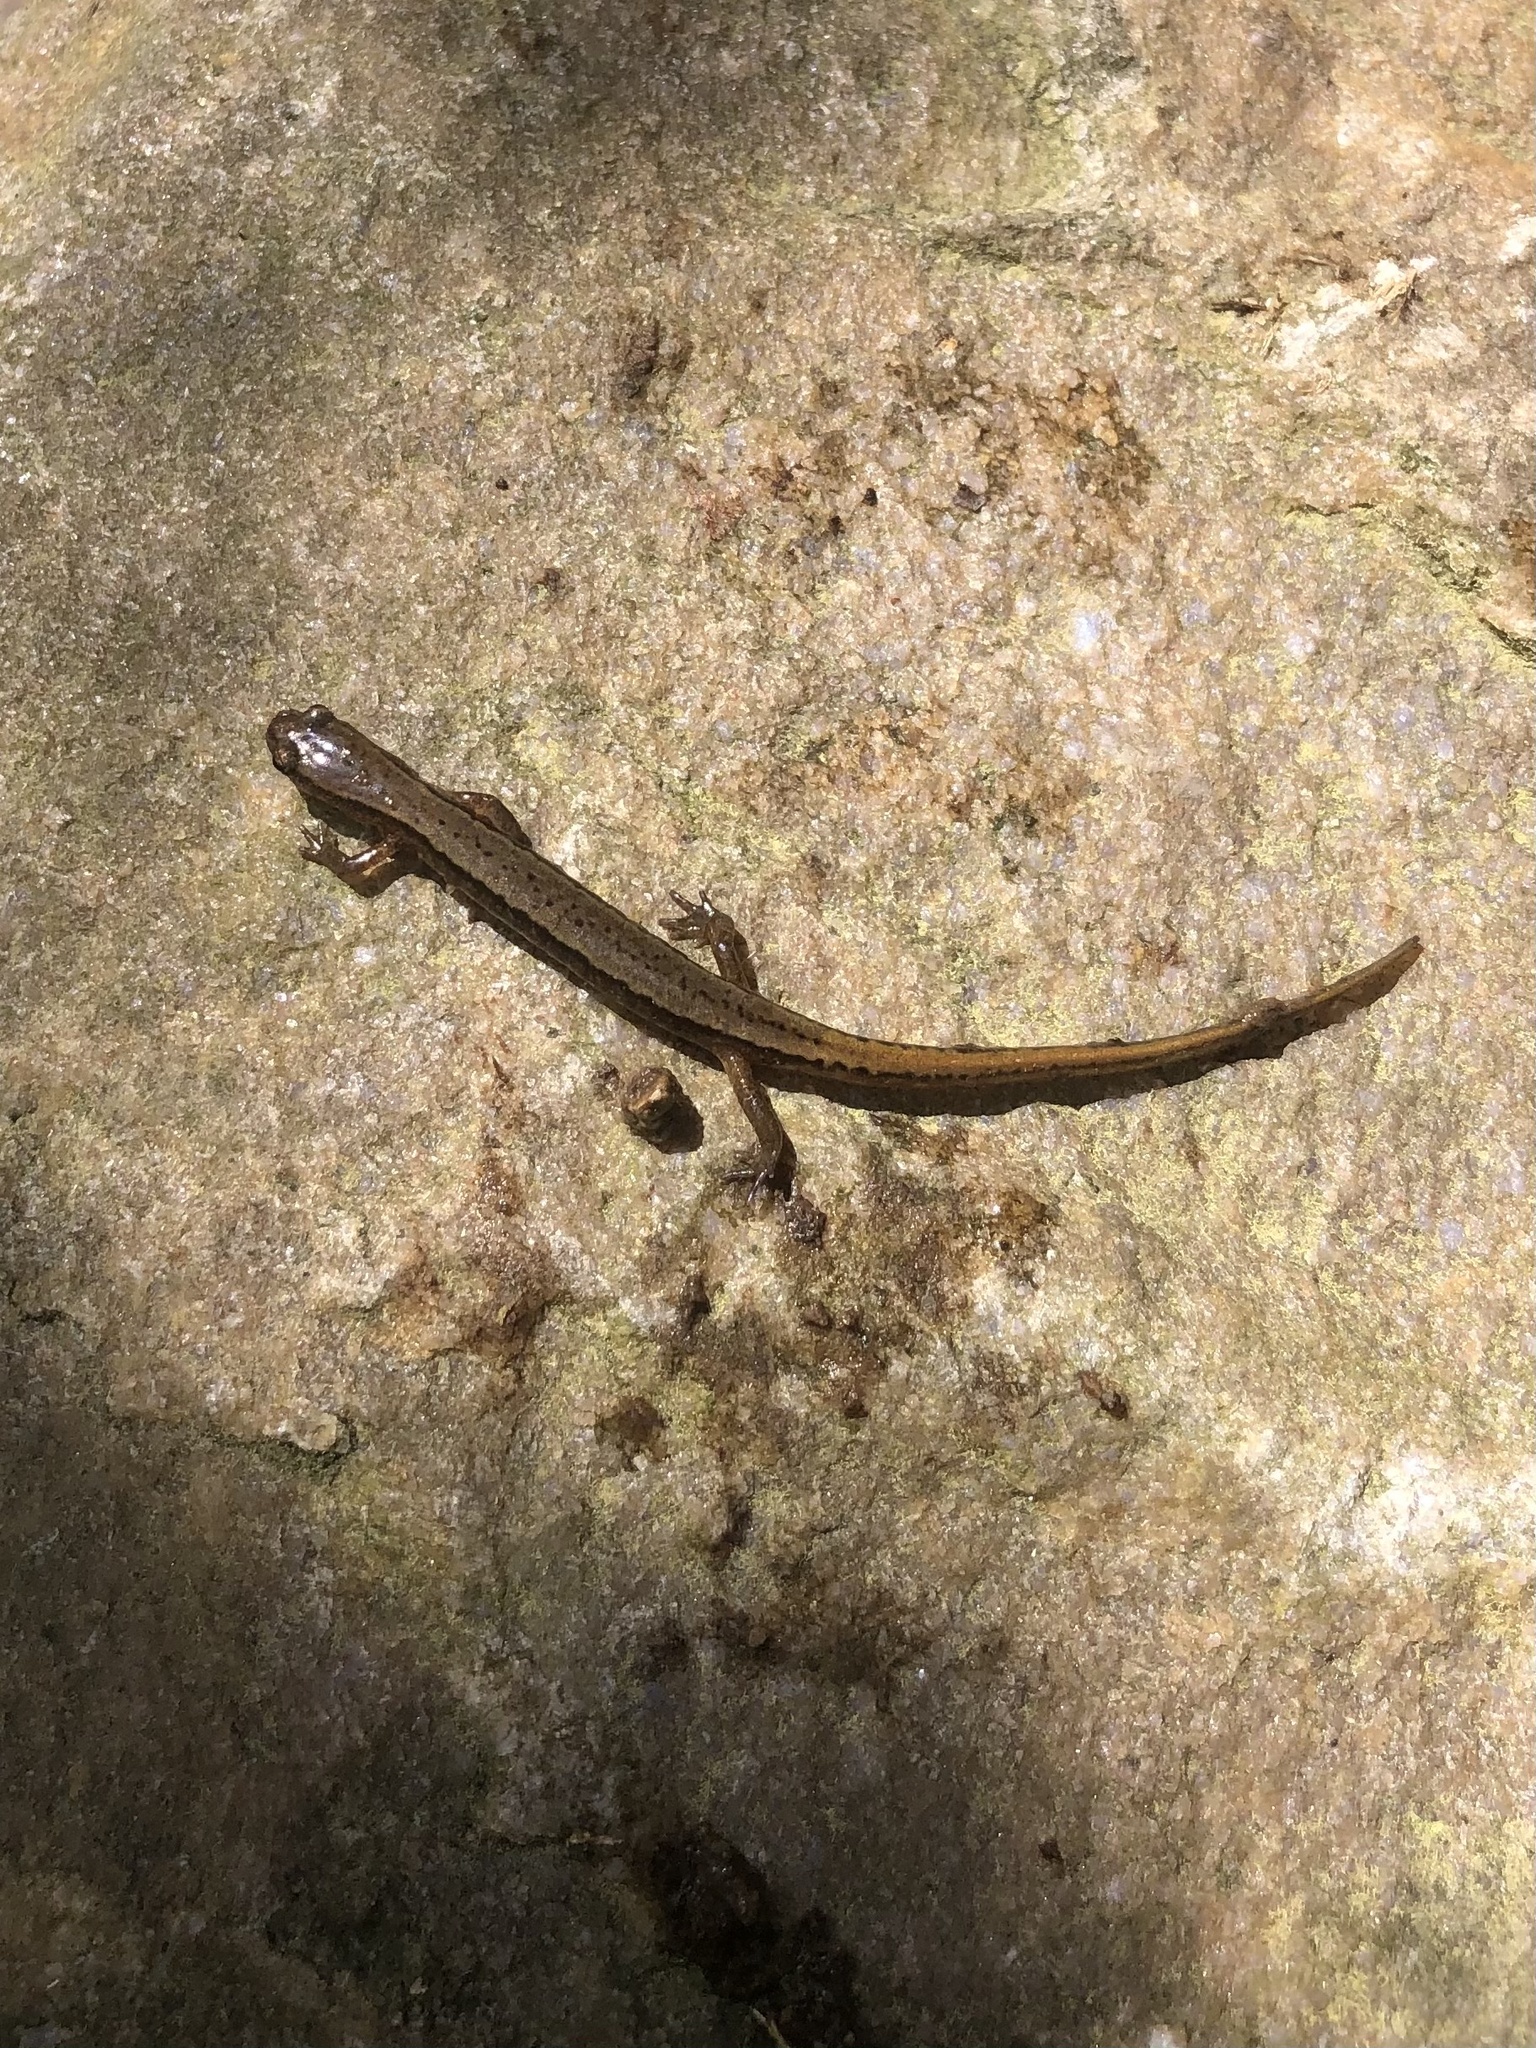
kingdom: Animalia
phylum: Chordata
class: Amphibia
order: Caudata
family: Plethodontidae
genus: Eurycea
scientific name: Eurycea bislineata
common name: Northern two-lined salamander
